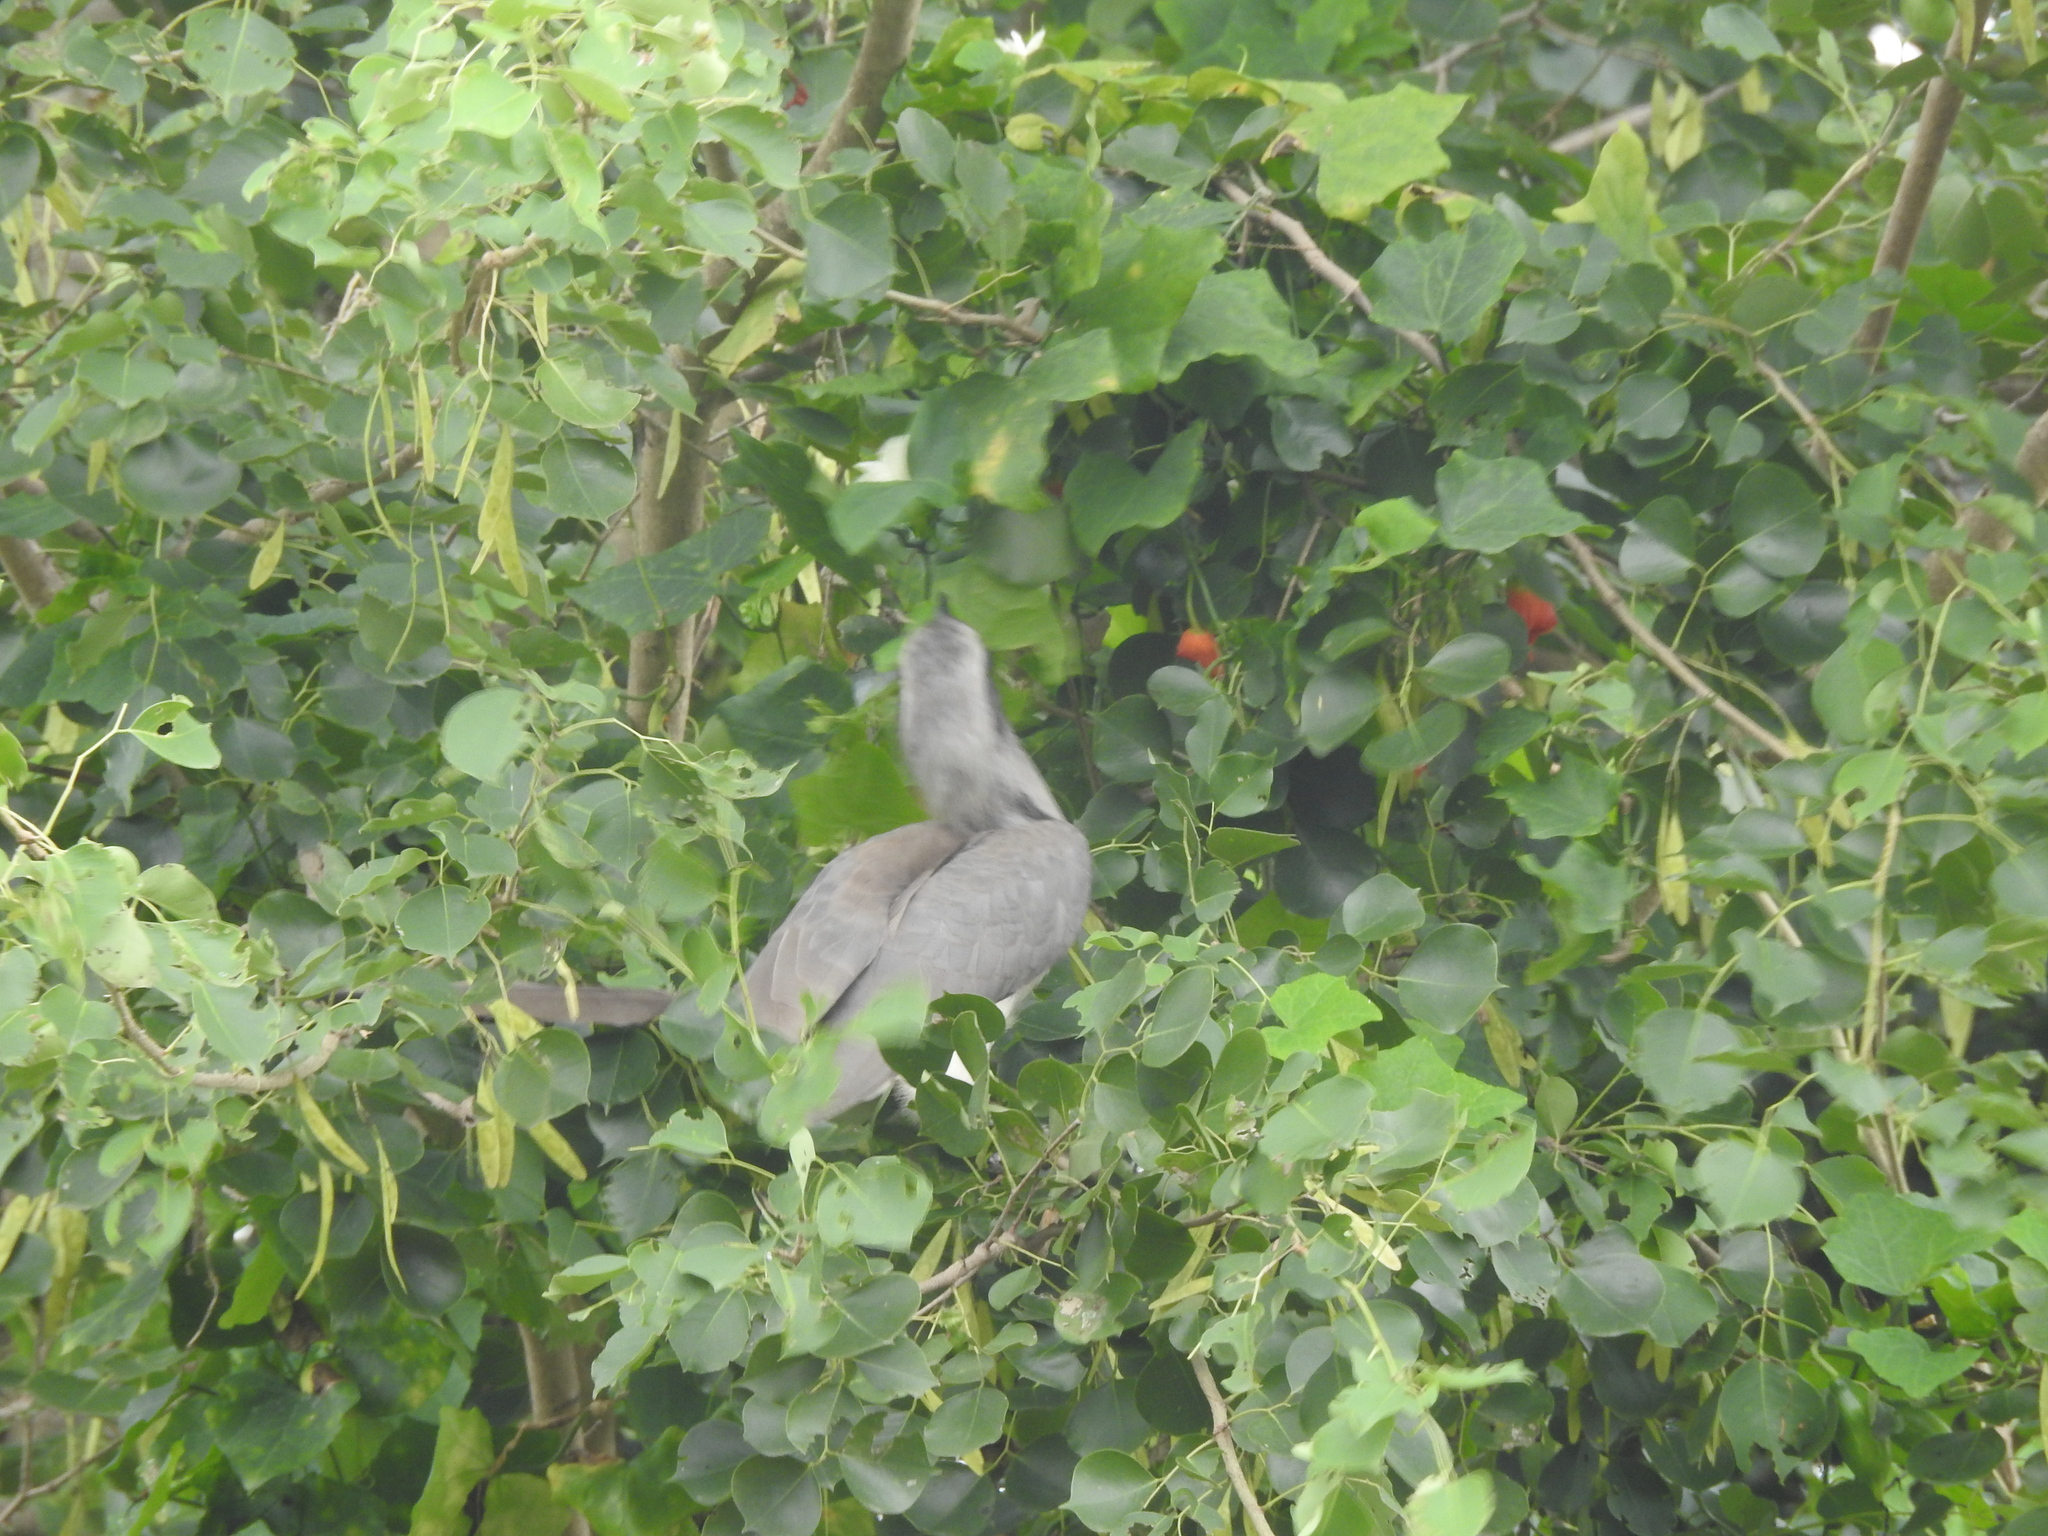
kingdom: Animalia
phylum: Chordata
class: Aves
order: Bucerotiformes
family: Bucerotidae
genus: Ocyceros
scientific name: Ocyceros birostris
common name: Indian grey hornbill
